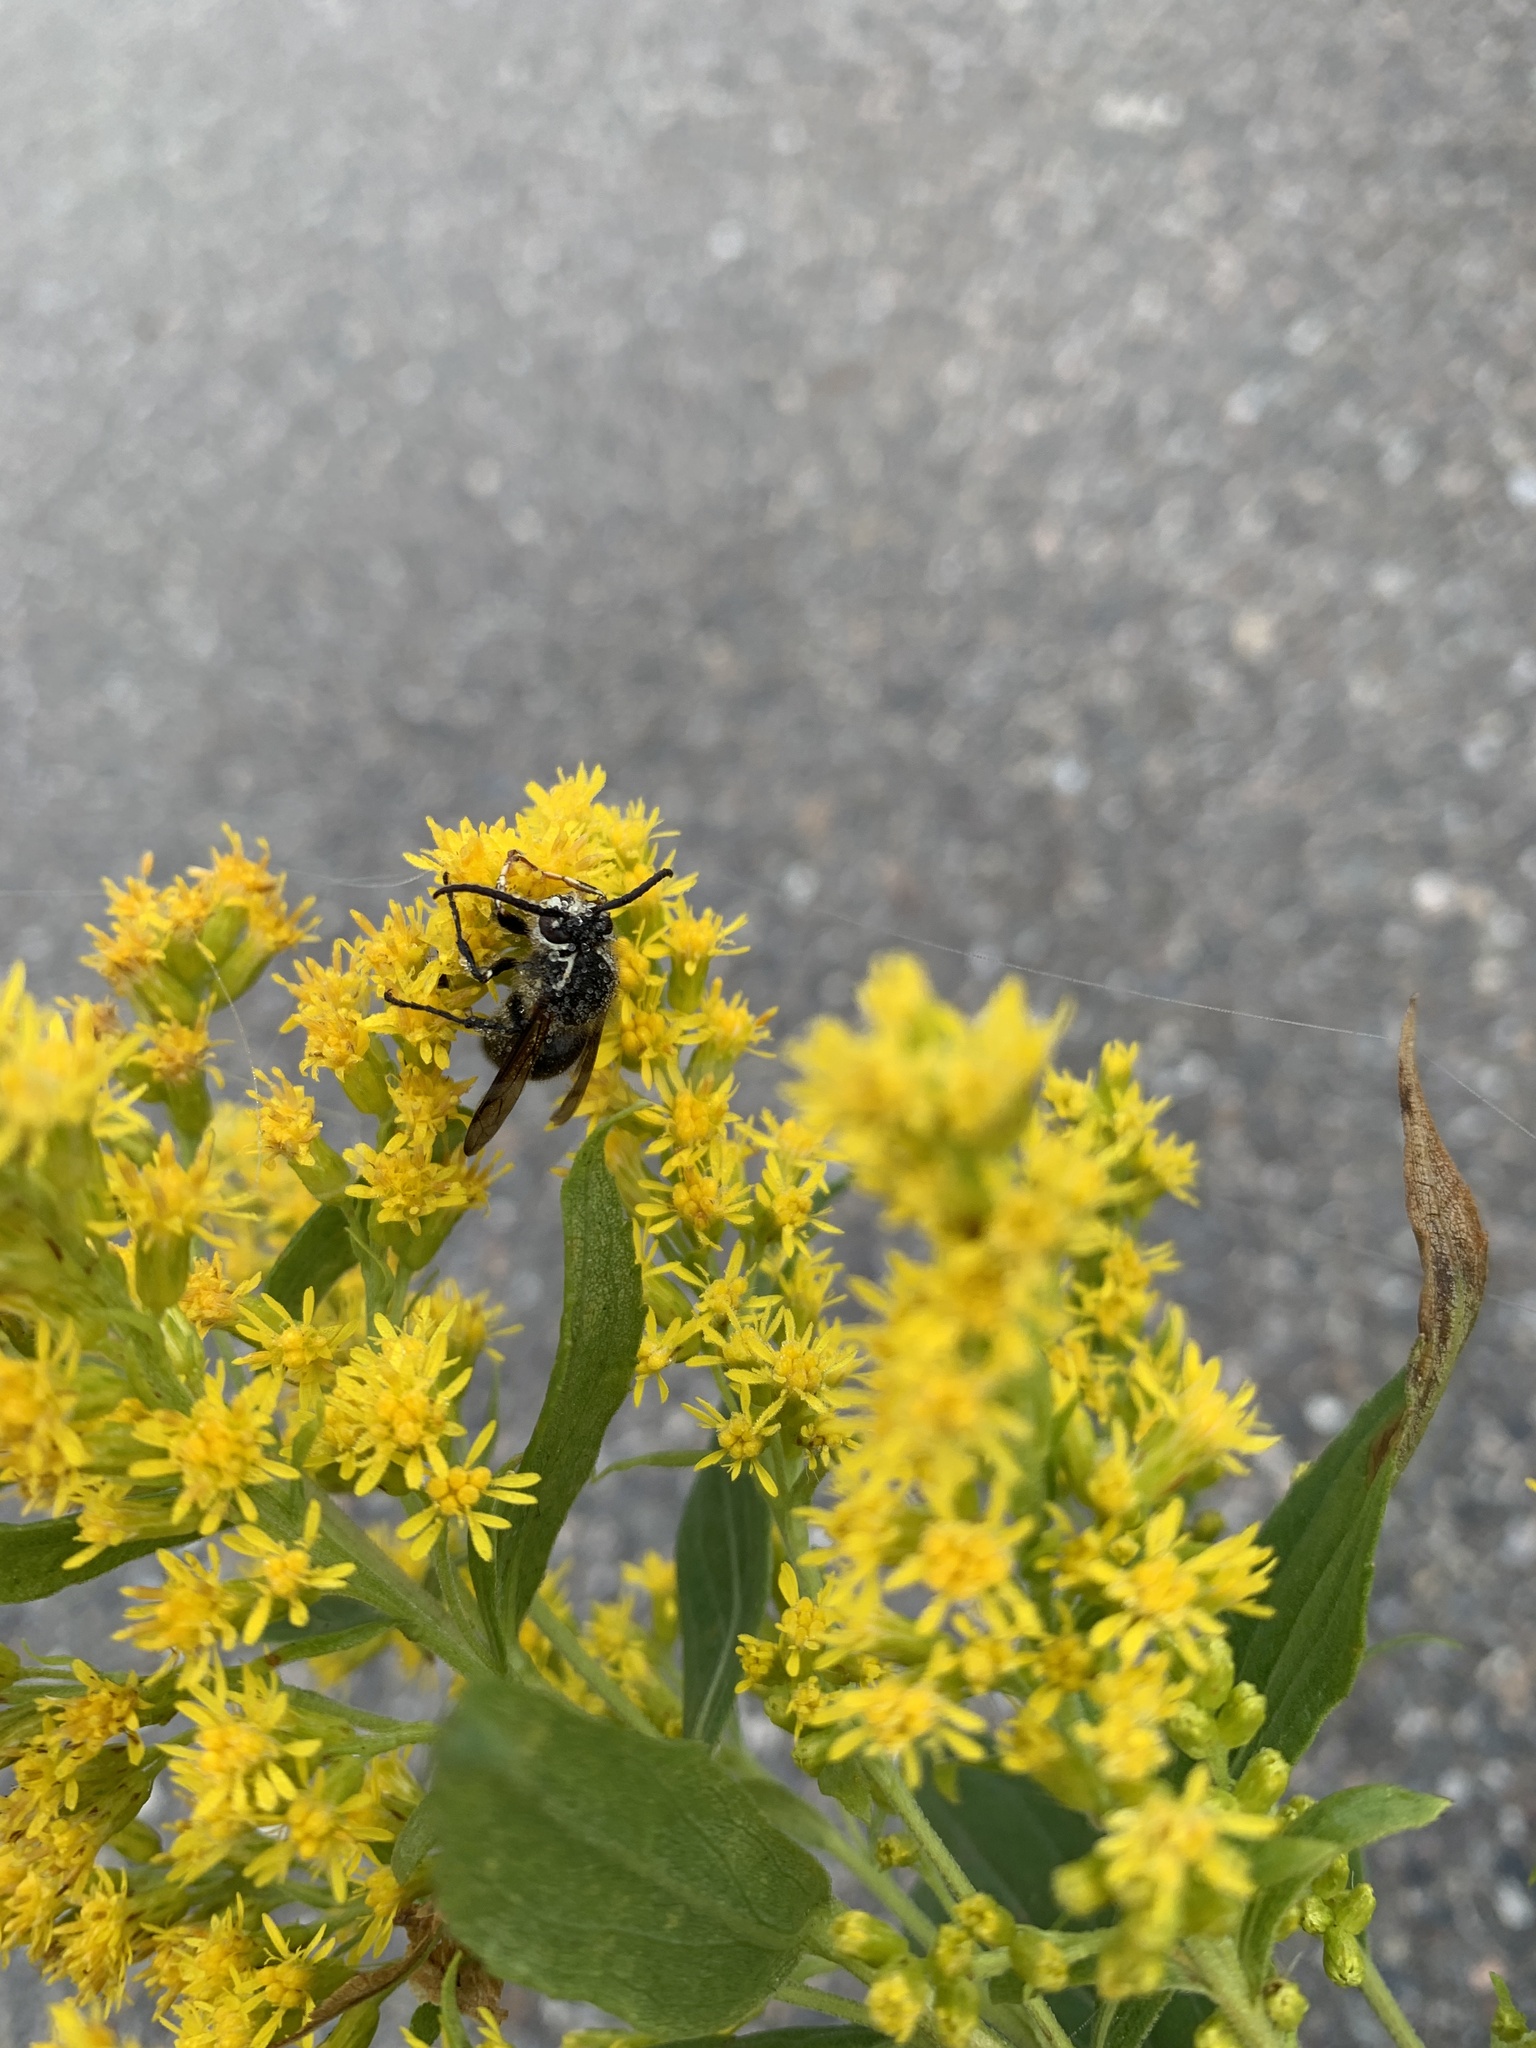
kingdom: Animalia
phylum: Arthropoda
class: Insecta
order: Hymenoptera
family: Vespidae
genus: Dolichovespula
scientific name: Dolichovespula maculata
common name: Bald-faced hornet
